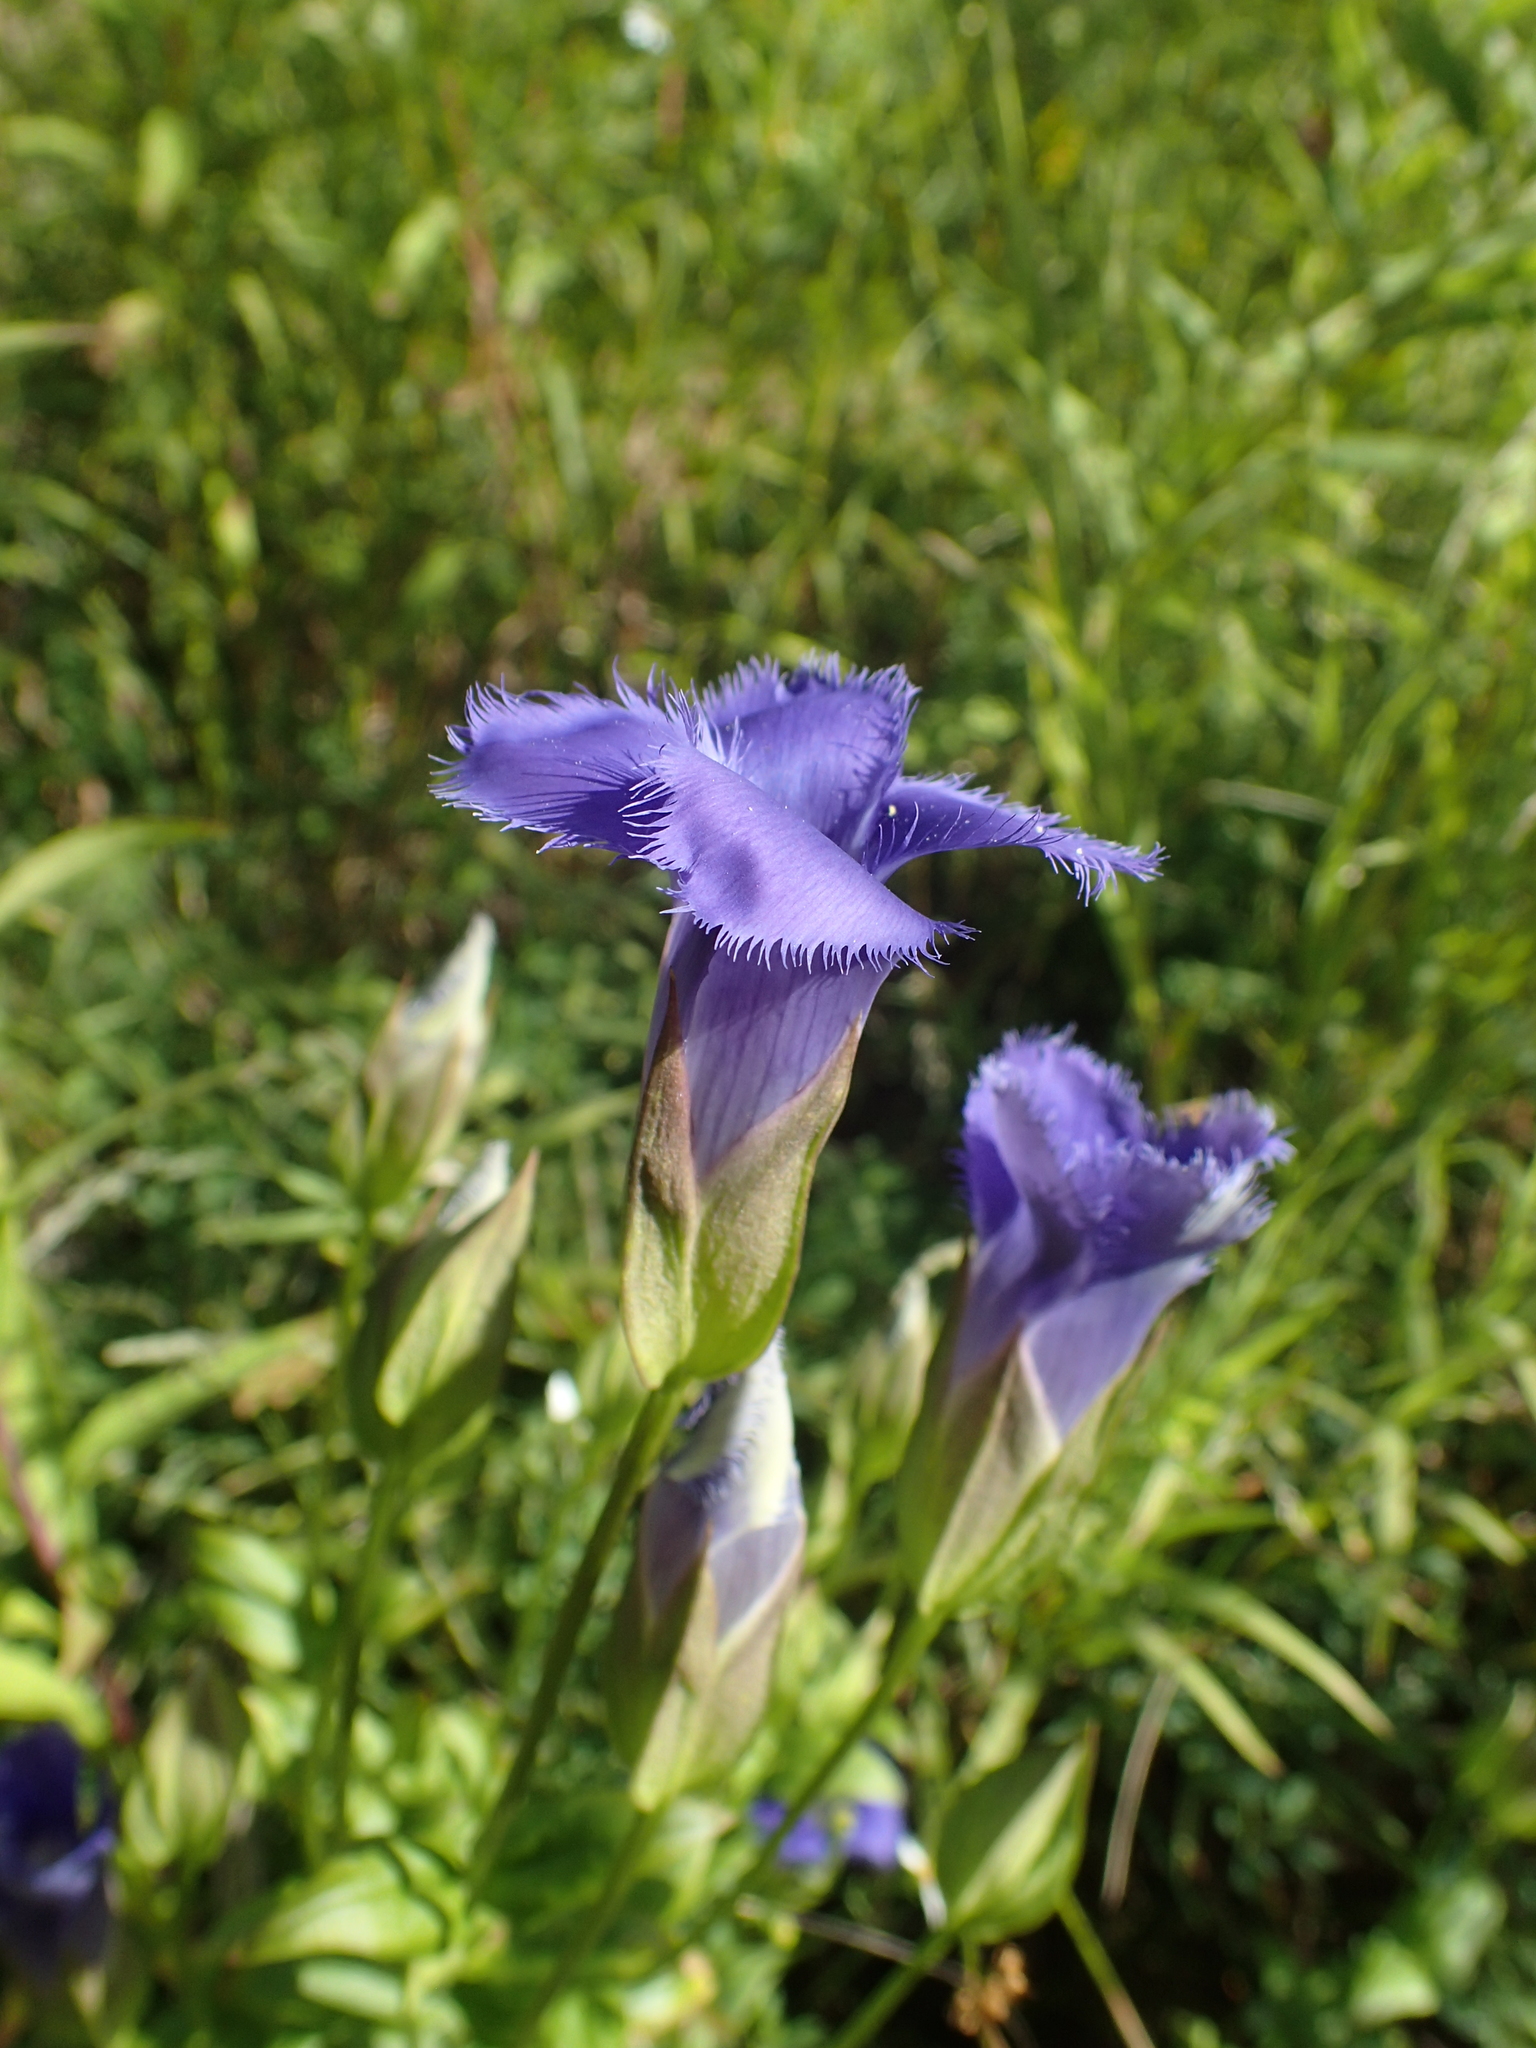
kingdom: Plantae
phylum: Tracheophyta
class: Magnoliopsida
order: Gentianales
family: Gentianaceae
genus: Gentianopsis
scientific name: Gentianopsis crinita
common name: Fringed-gentian
